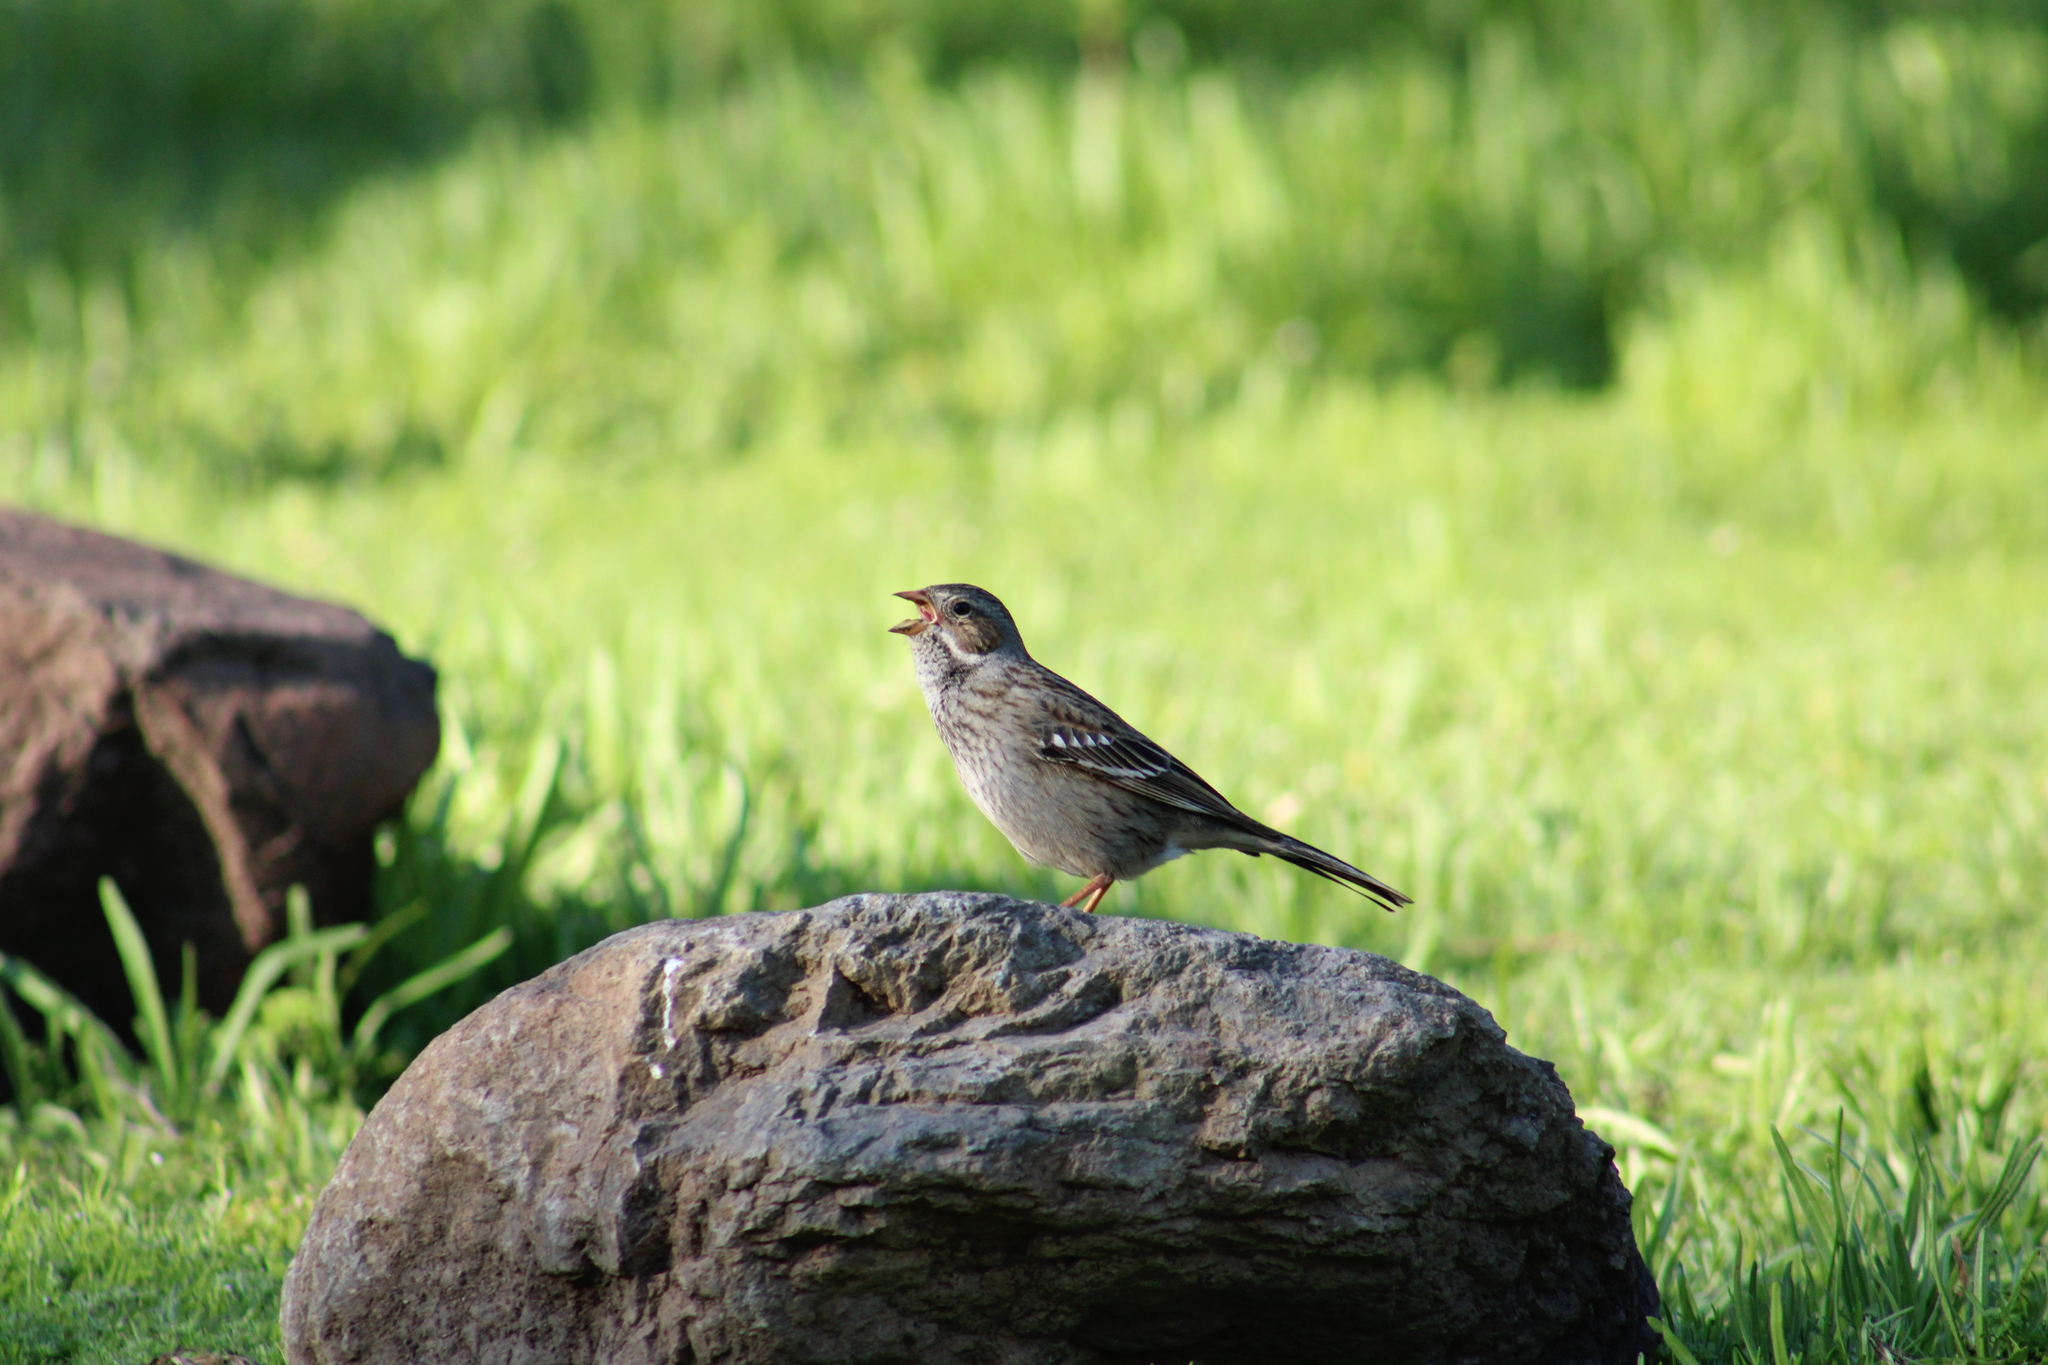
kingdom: Animalia
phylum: Chordata
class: Aves
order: Passeriformes
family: Thraupidae
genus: Rhopospina
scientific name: Rhopospina fruticeti
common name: Mourning sierra finch
